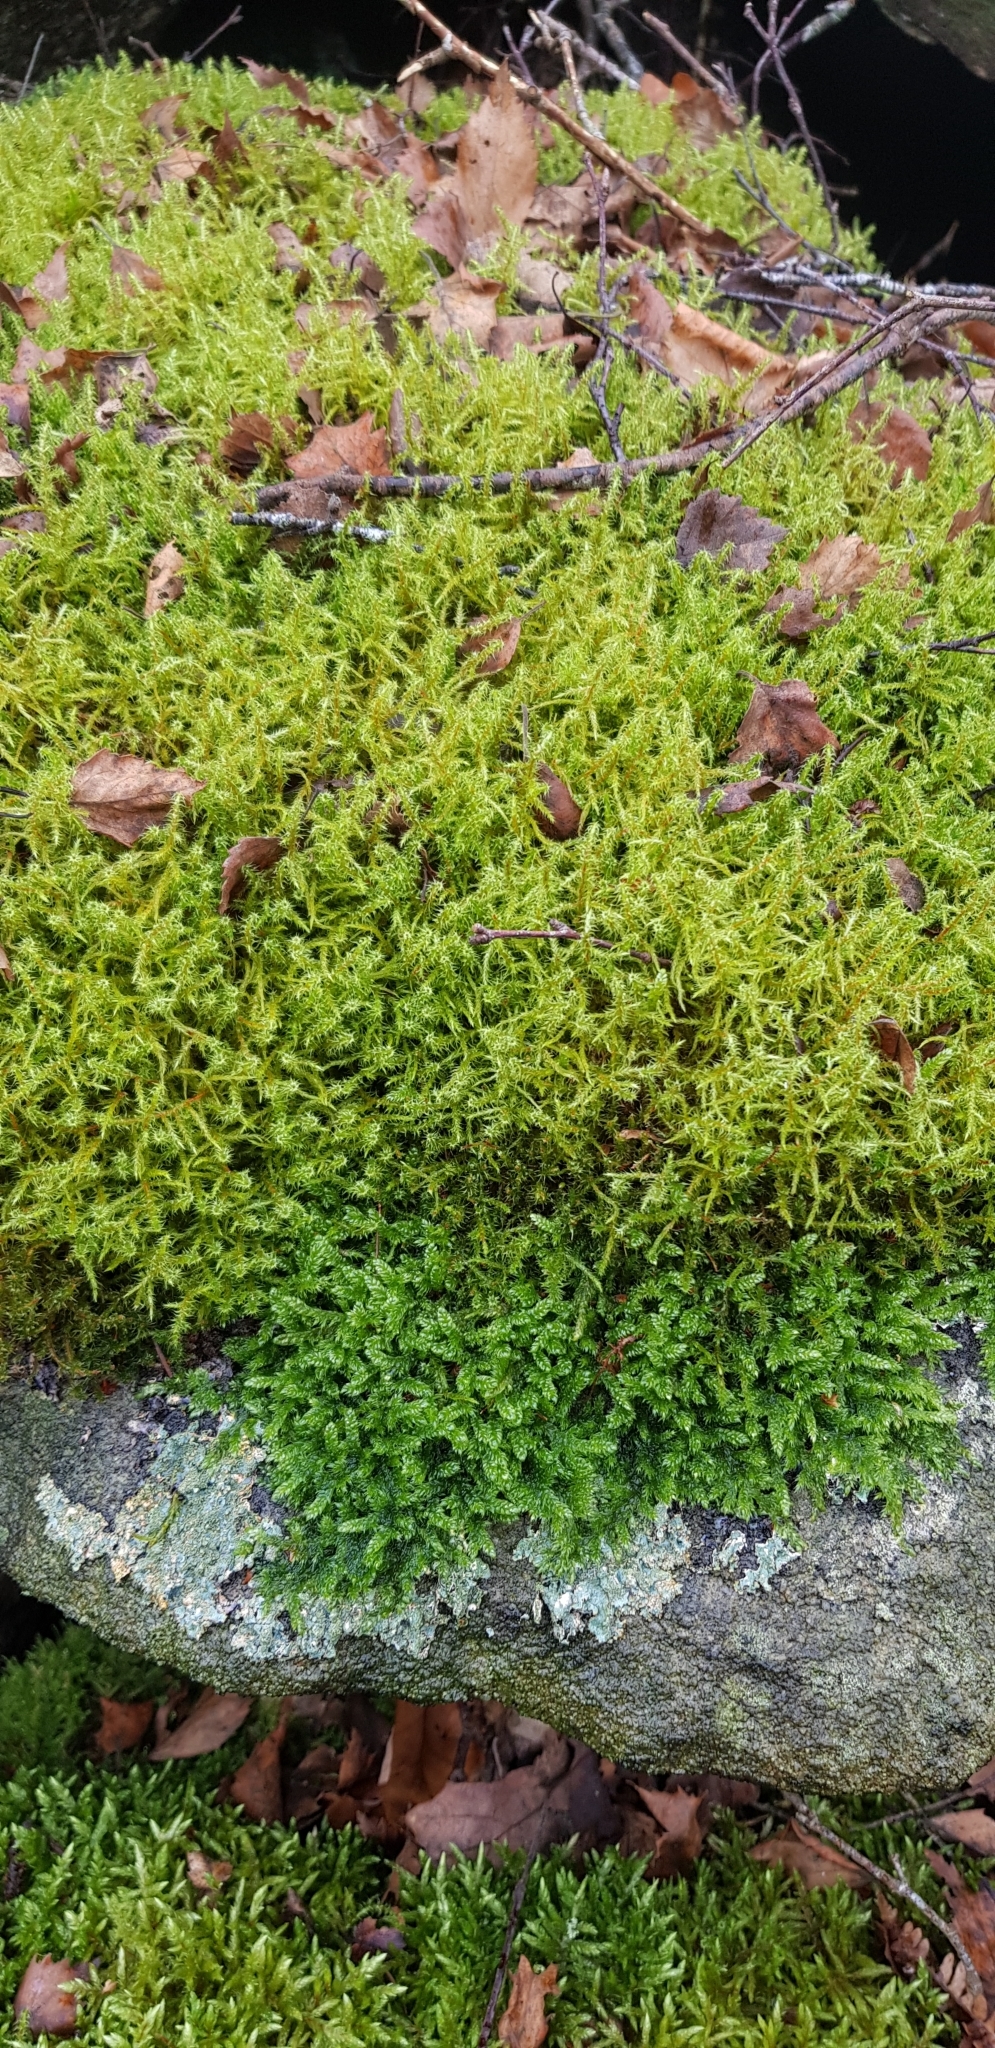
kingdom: Plantae
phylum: Bryophyta
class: Bryopsida
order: Hypnales
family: Hylocomiaceae
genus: Rhytidiadelphus
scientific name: Rhytidiadelphus squarrosus
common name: Springy turf-moss
